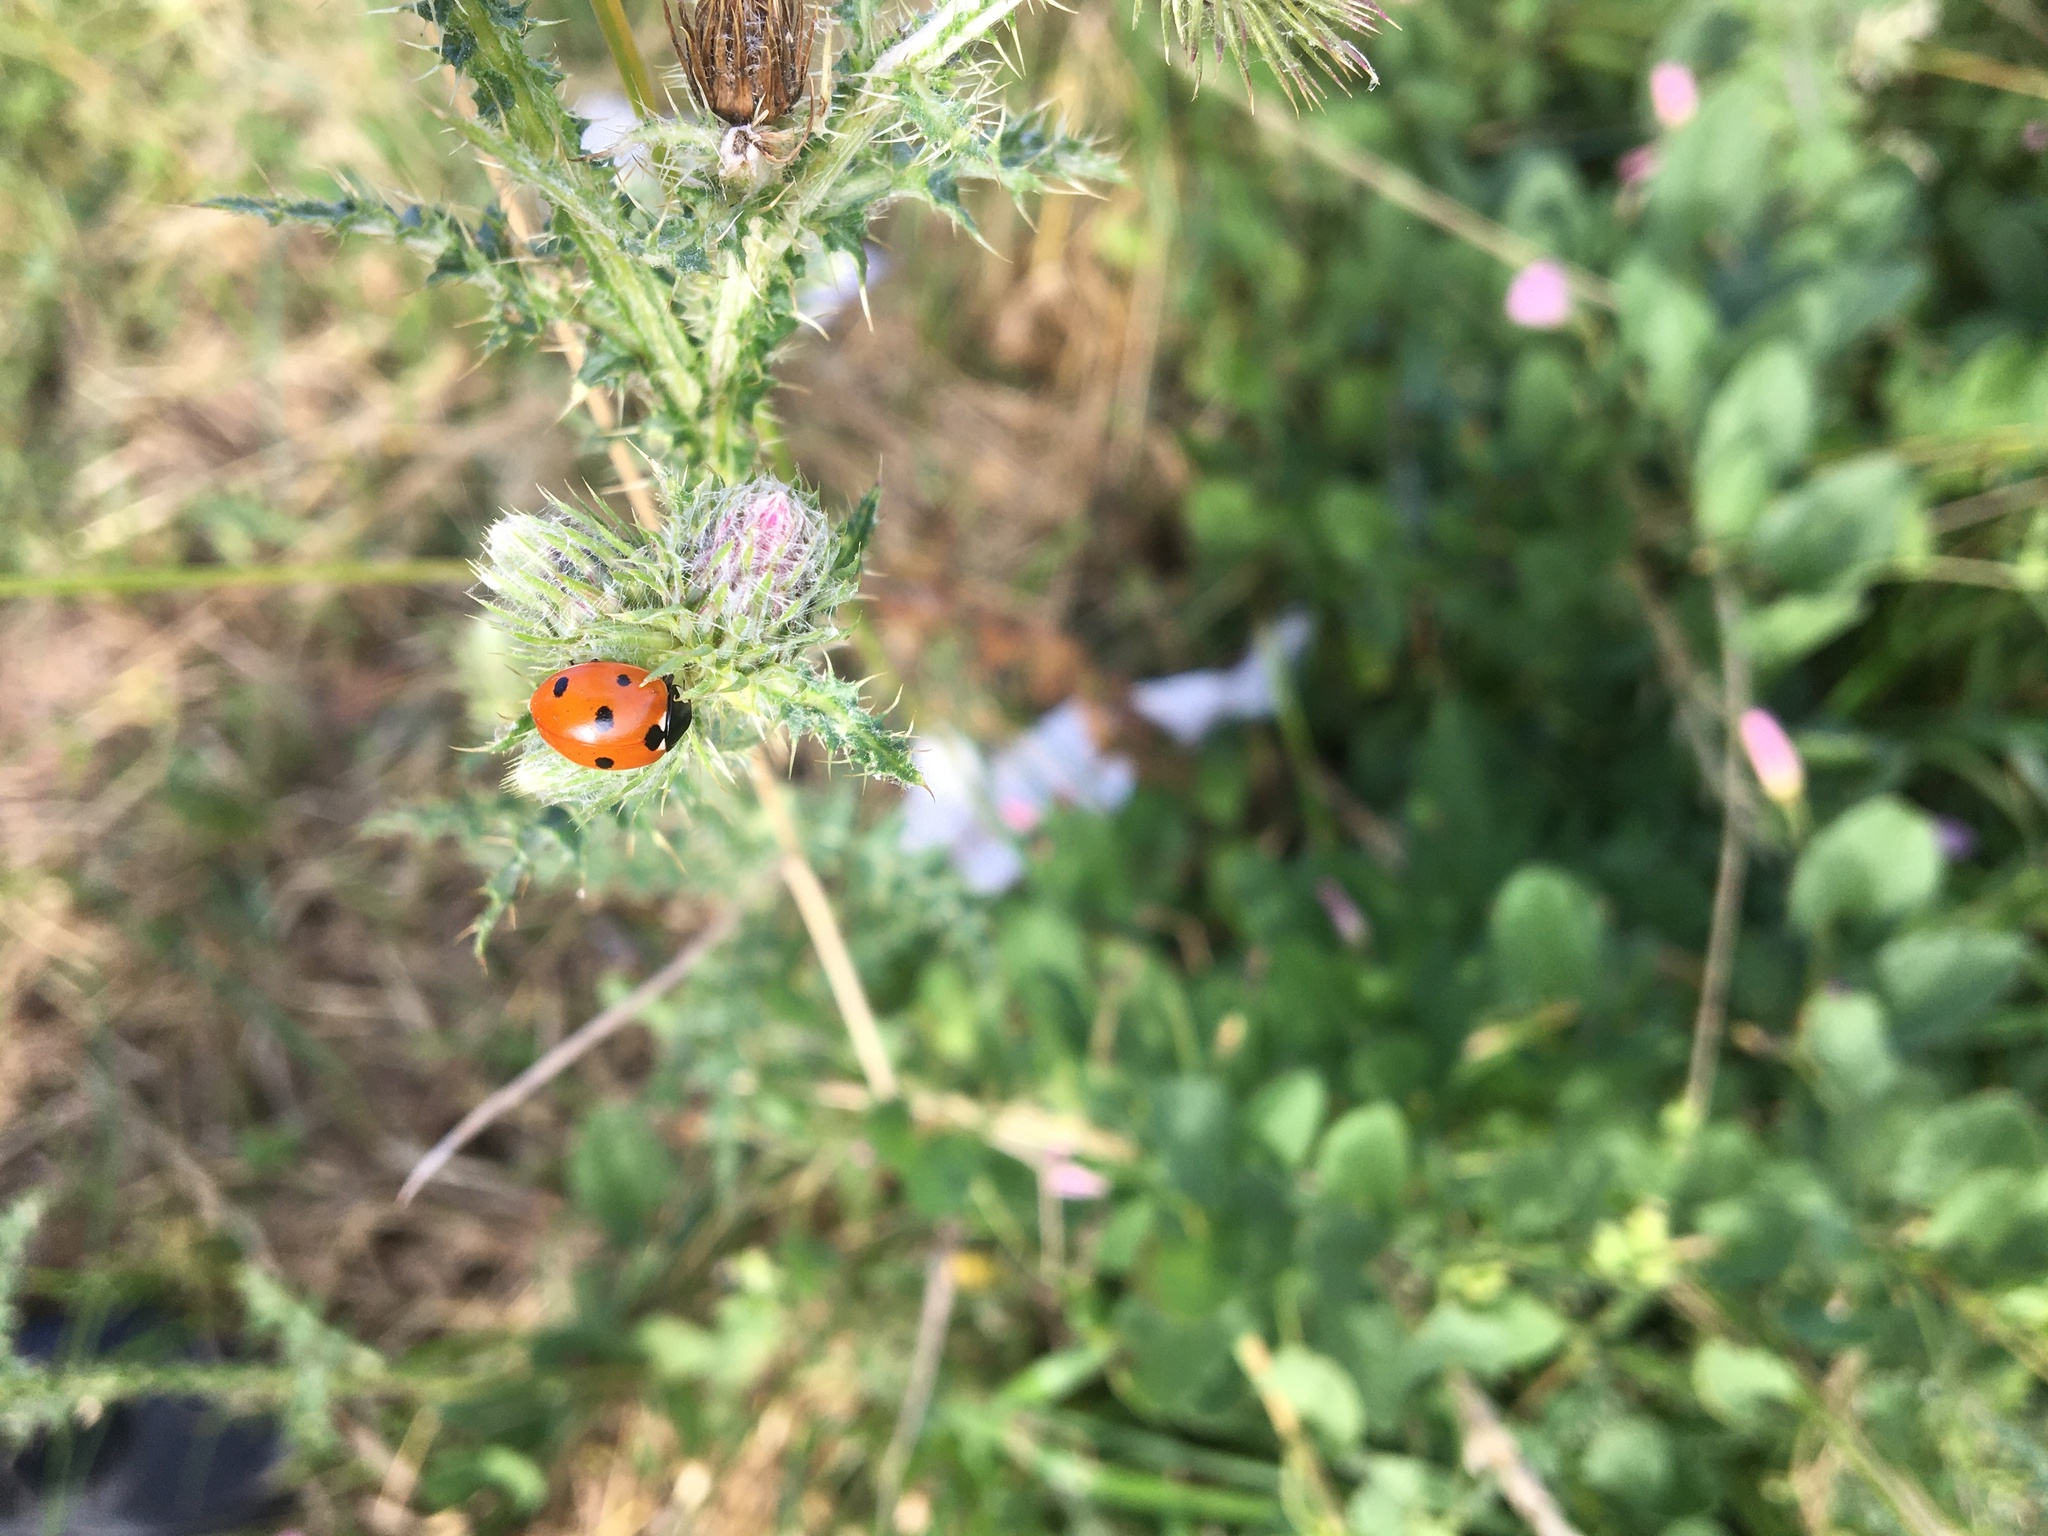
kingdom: Animalia
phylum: Arthropoda
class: Insecta
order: Coleoptera
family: Coccinellidae
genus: Coccinella
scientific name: Coccinella septempunctata
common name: Sevenspotted lady beetle
